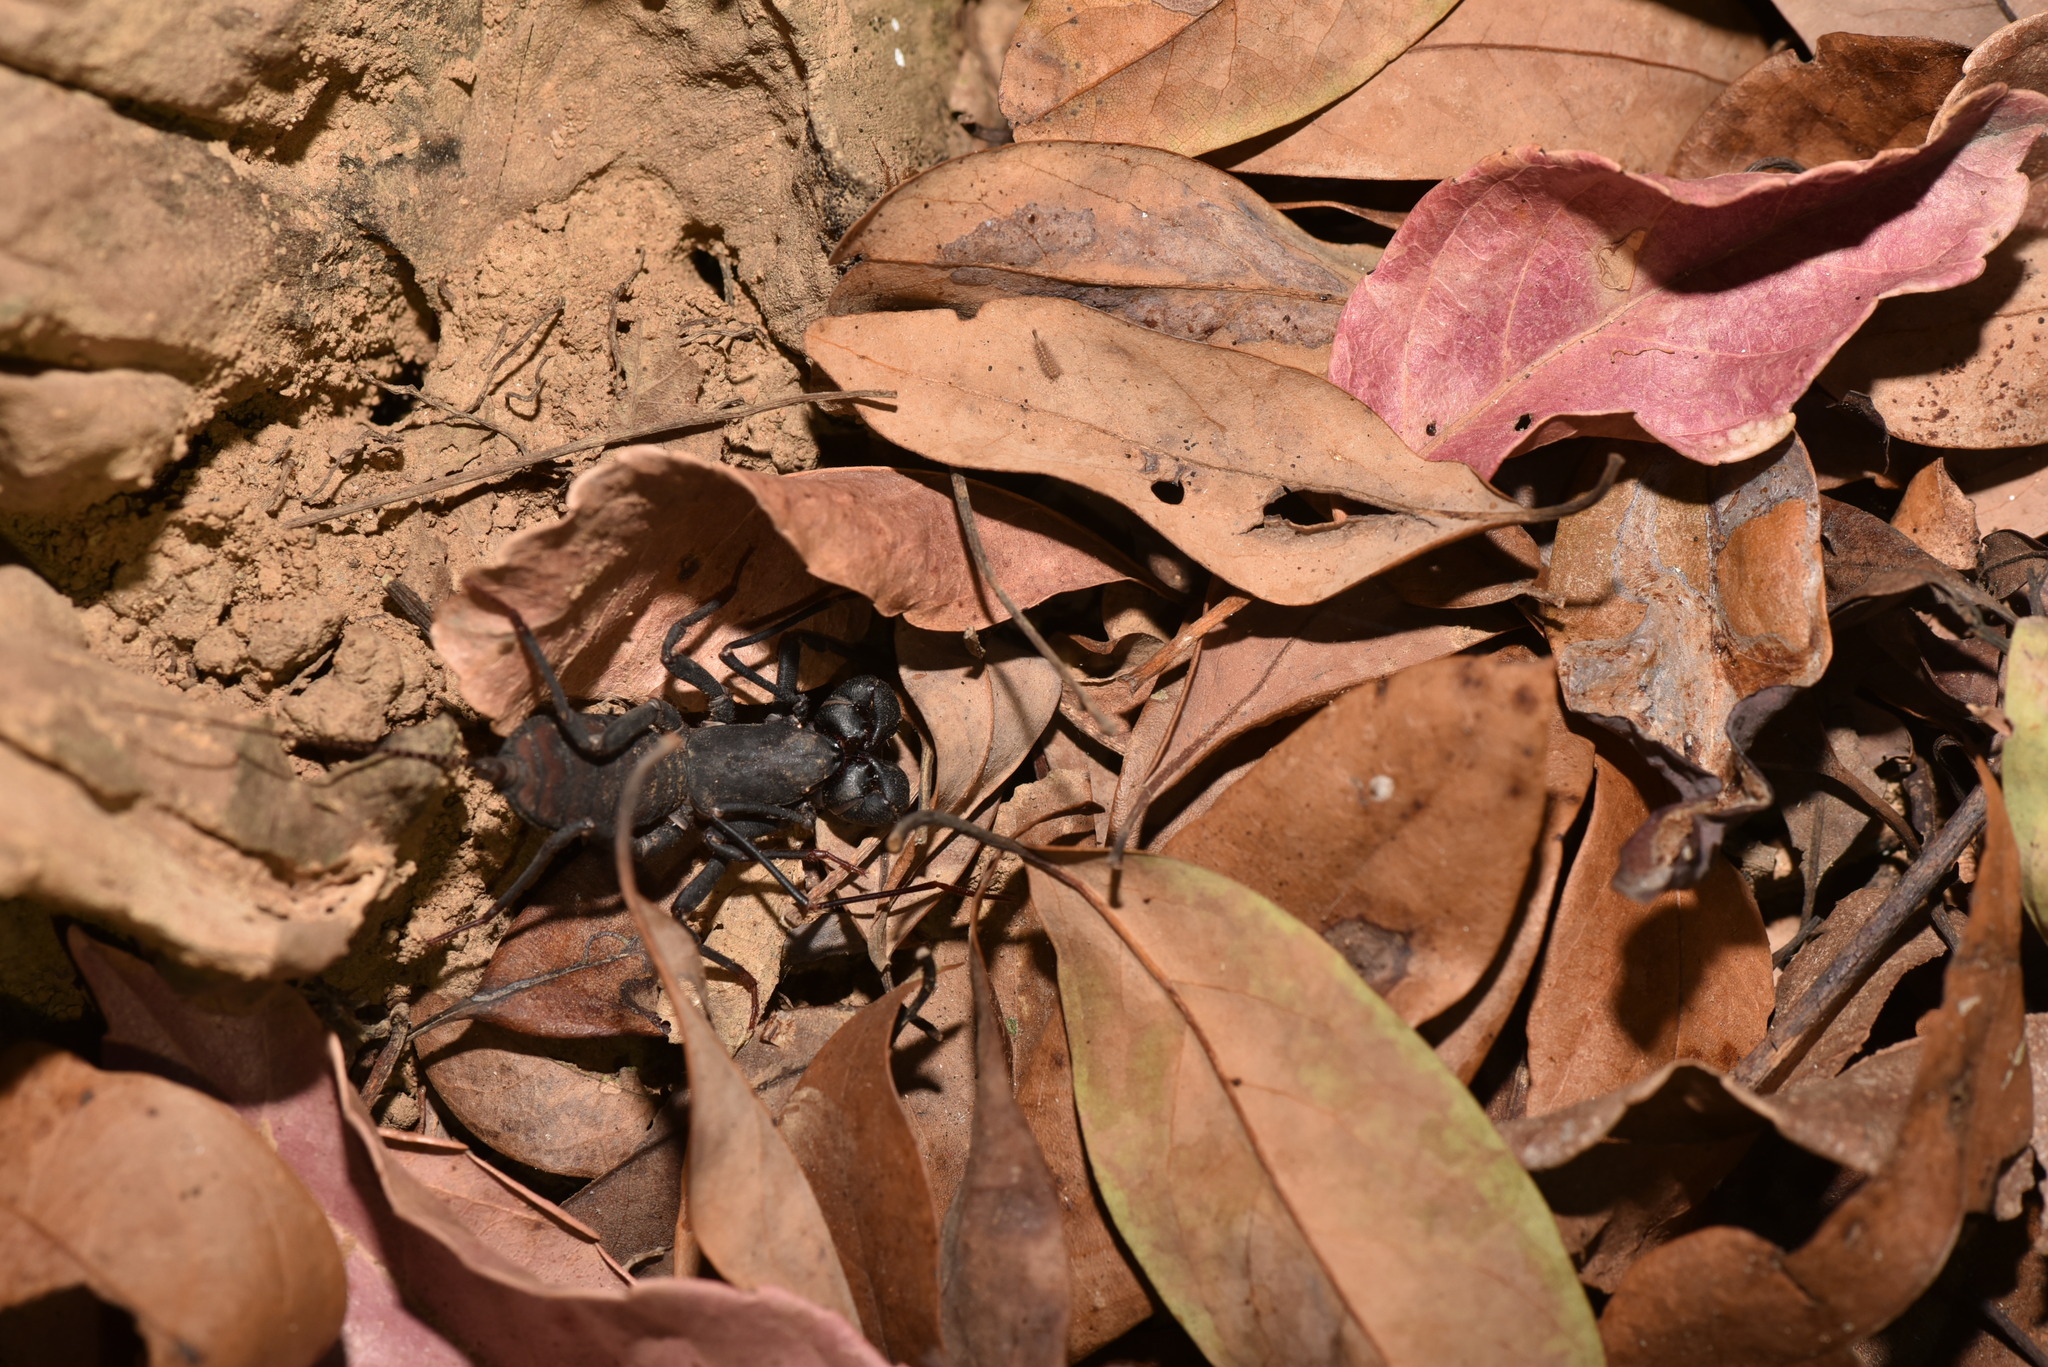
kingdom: Animalia
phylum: Arthropoda
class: Arachnida
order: Uropygi
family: Thelyphonidae
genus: Typopeltis
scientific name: Typopeltis crucifer
